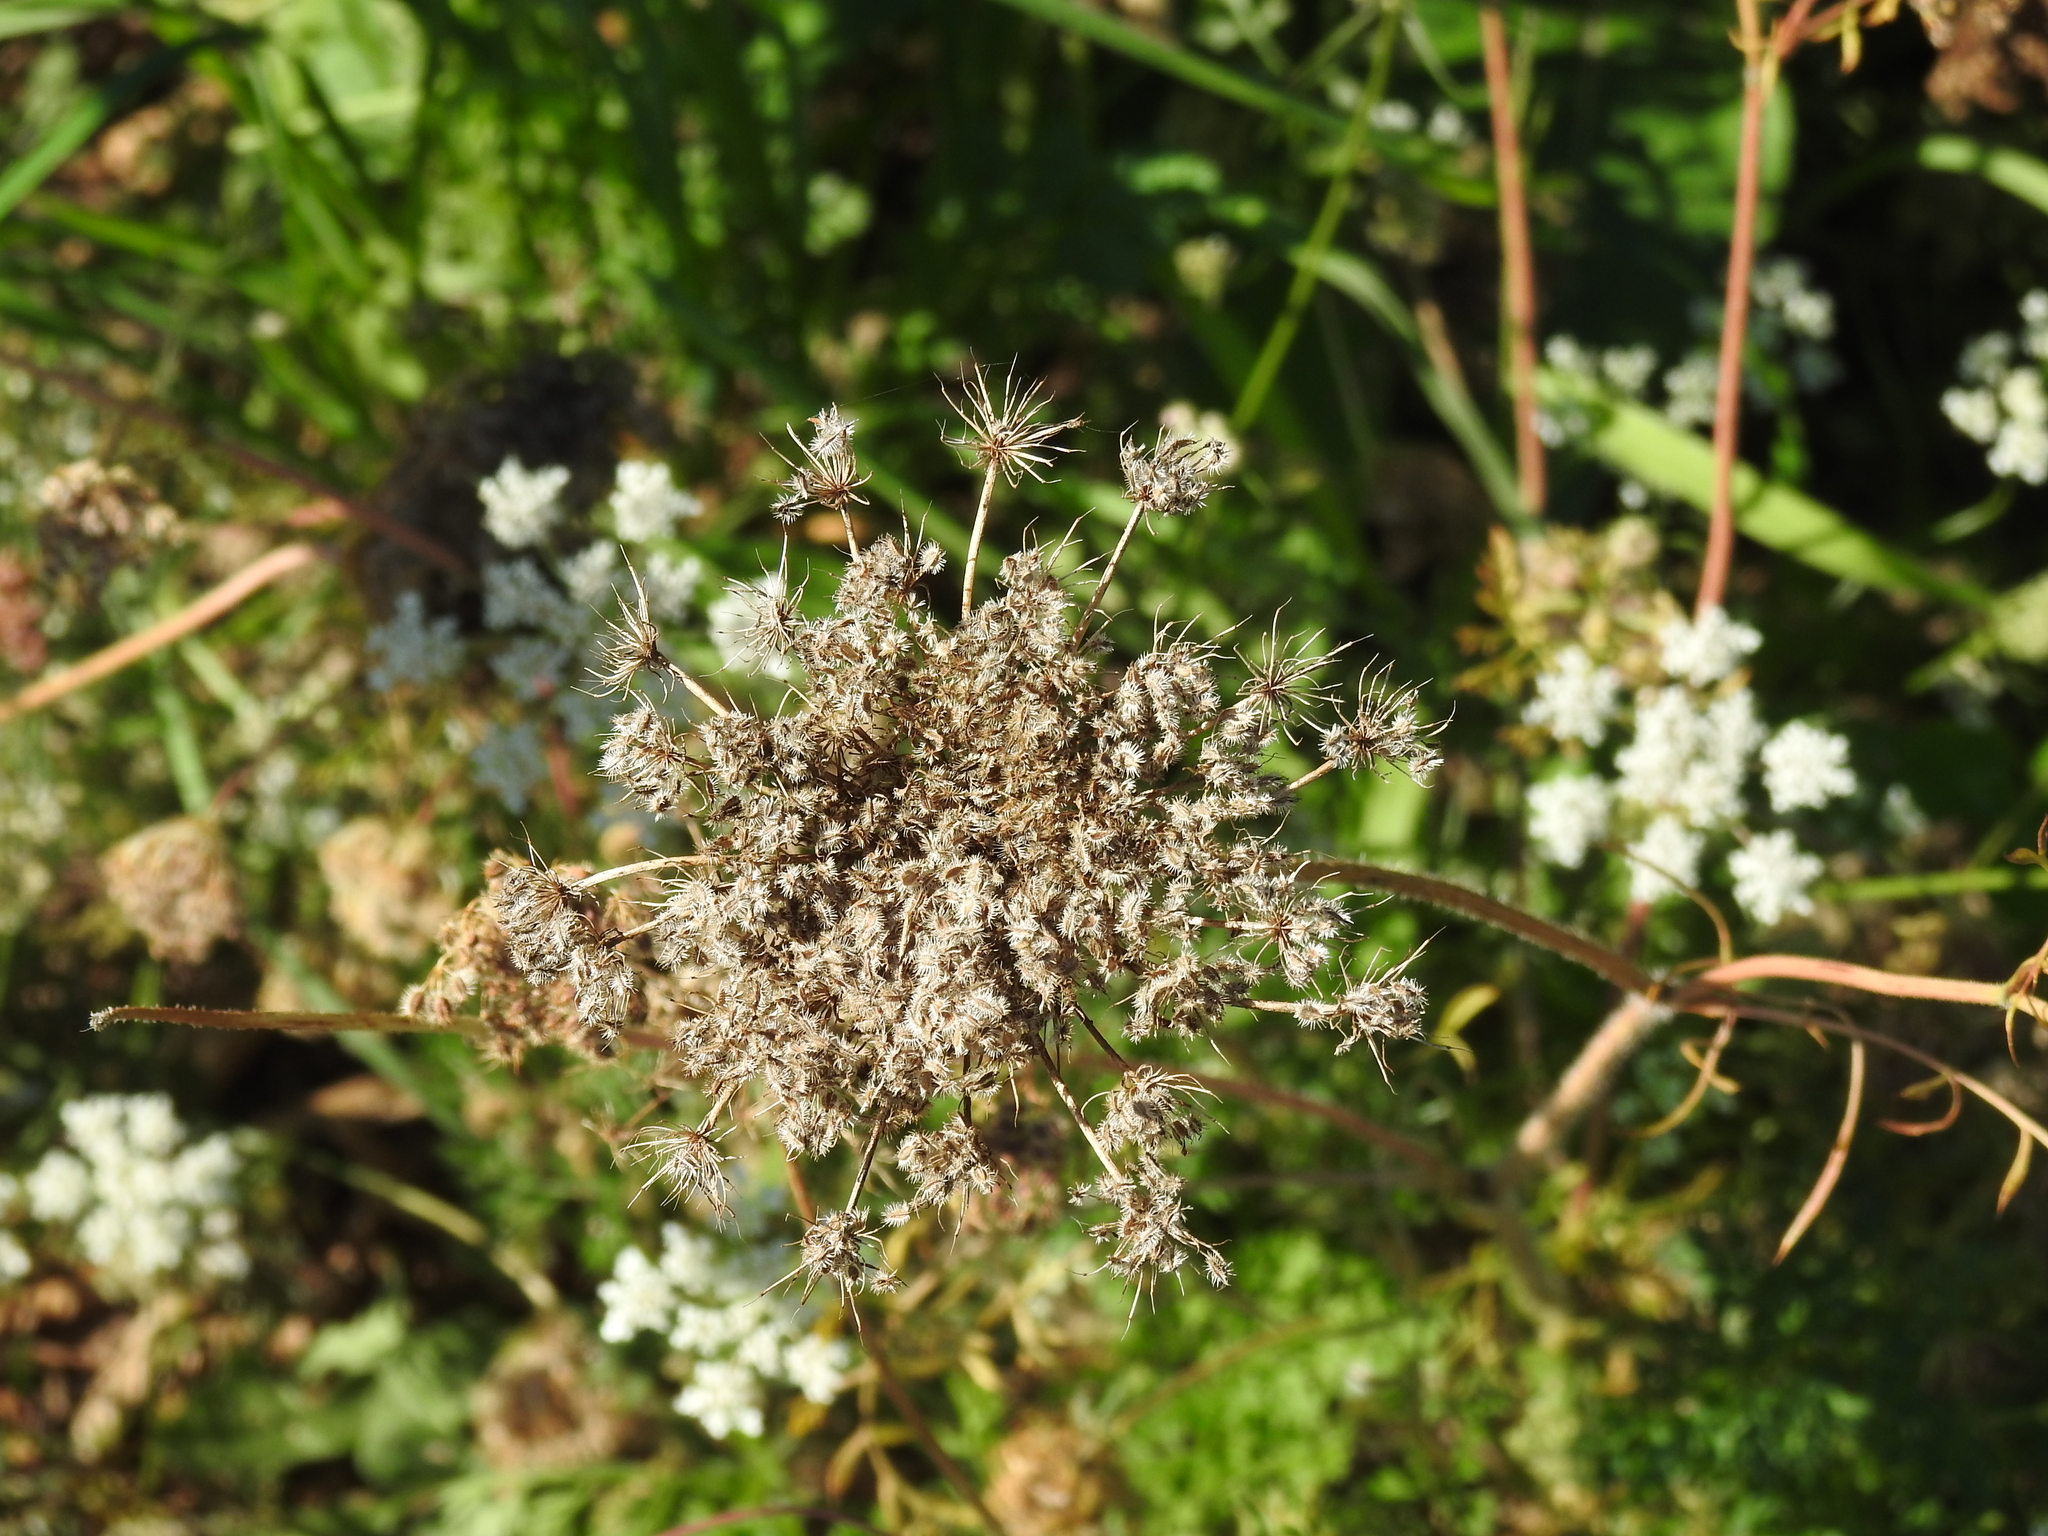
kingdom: Plantae
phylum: Tracheophyta
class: Magnoliopsida
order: Apiales
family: Apiaceae
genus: Daucus
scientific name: Daucus carota
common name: Wild carrot
